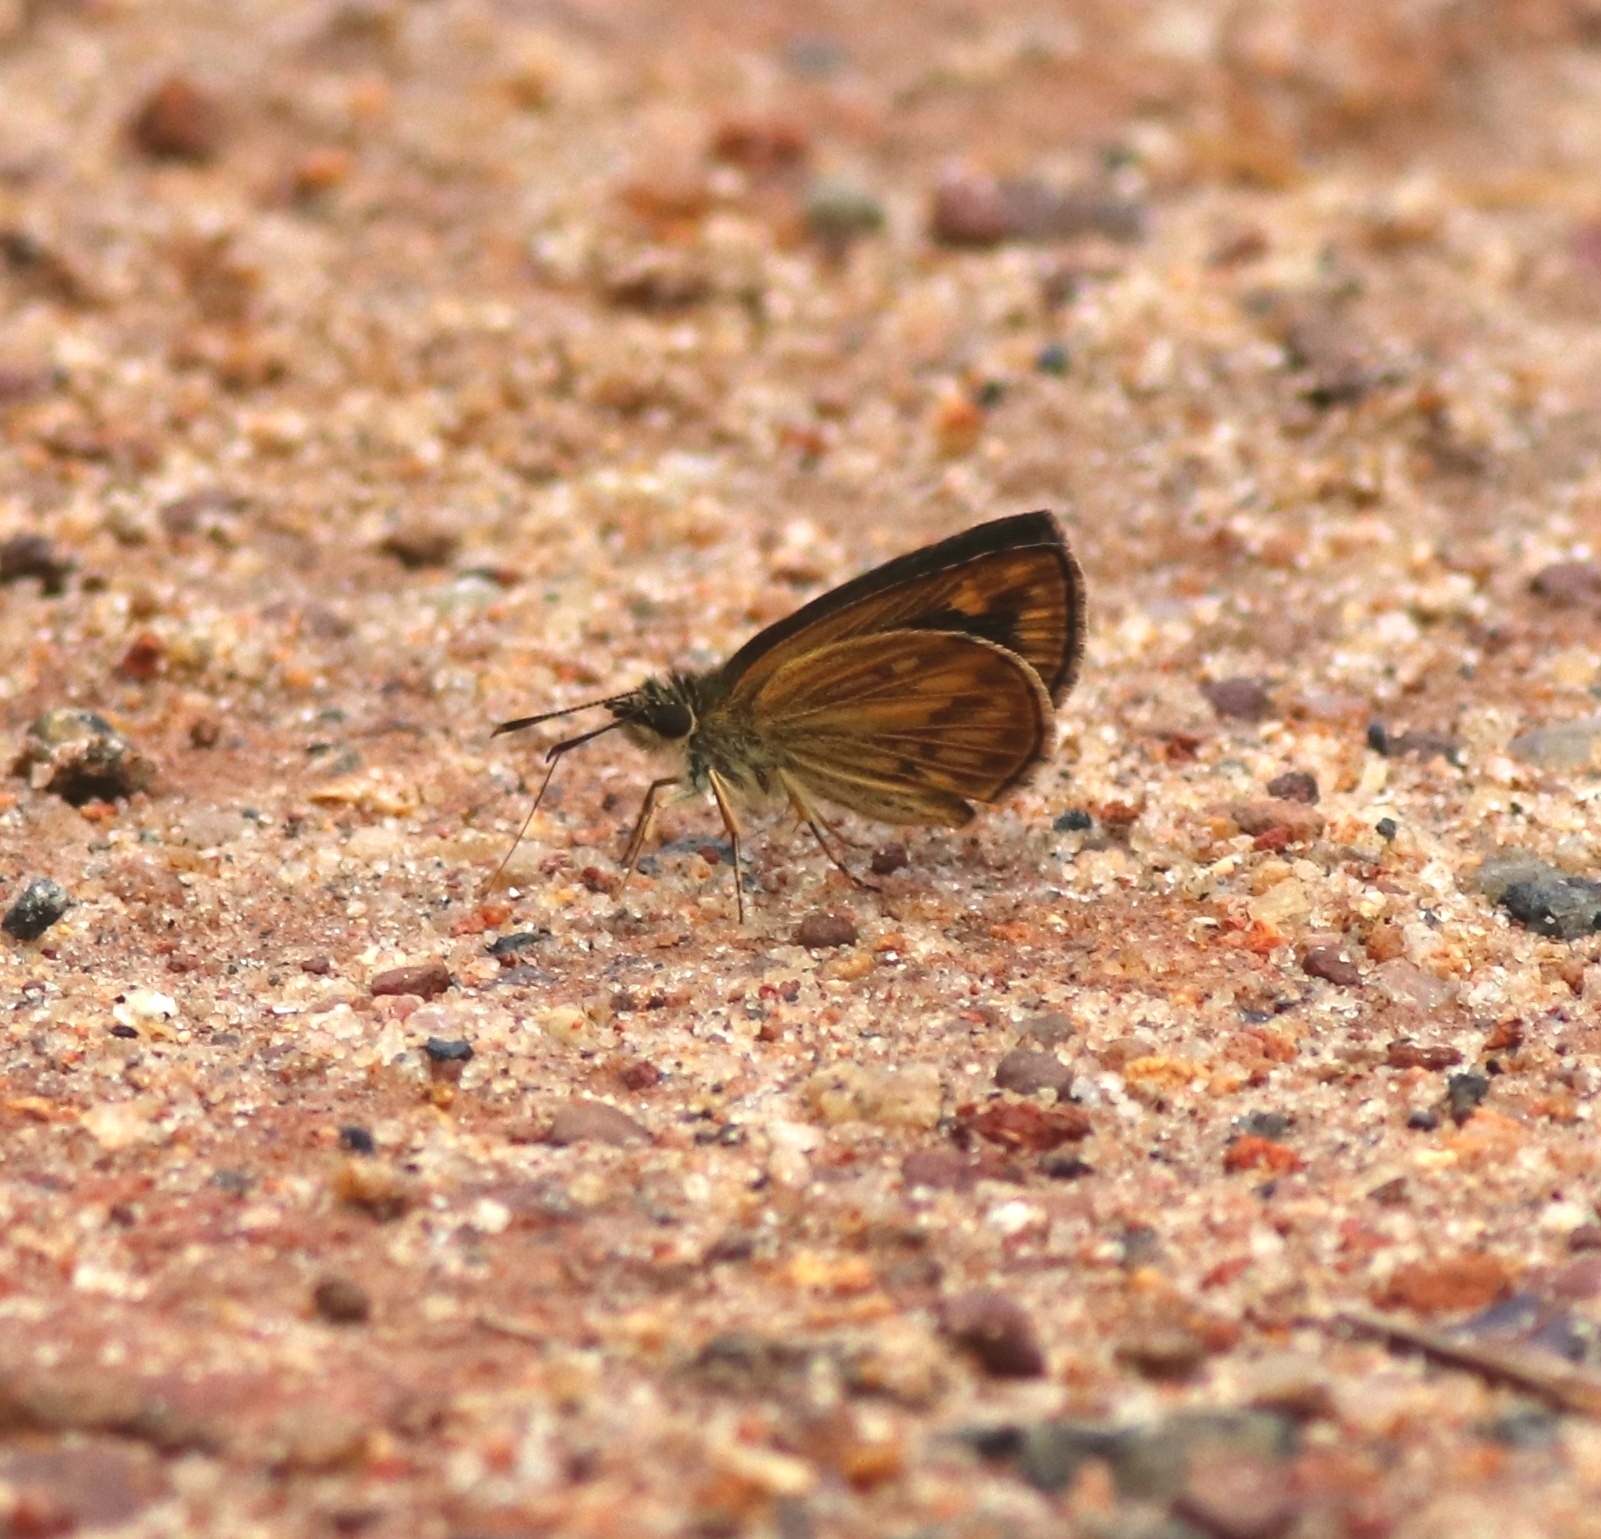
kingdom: Animalia
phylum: Arthropoda
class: Insecta
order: Lepidoptera
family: Hesperiidae
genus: Baracus
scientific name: Baracus vittatus
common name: Hedge-hopper
